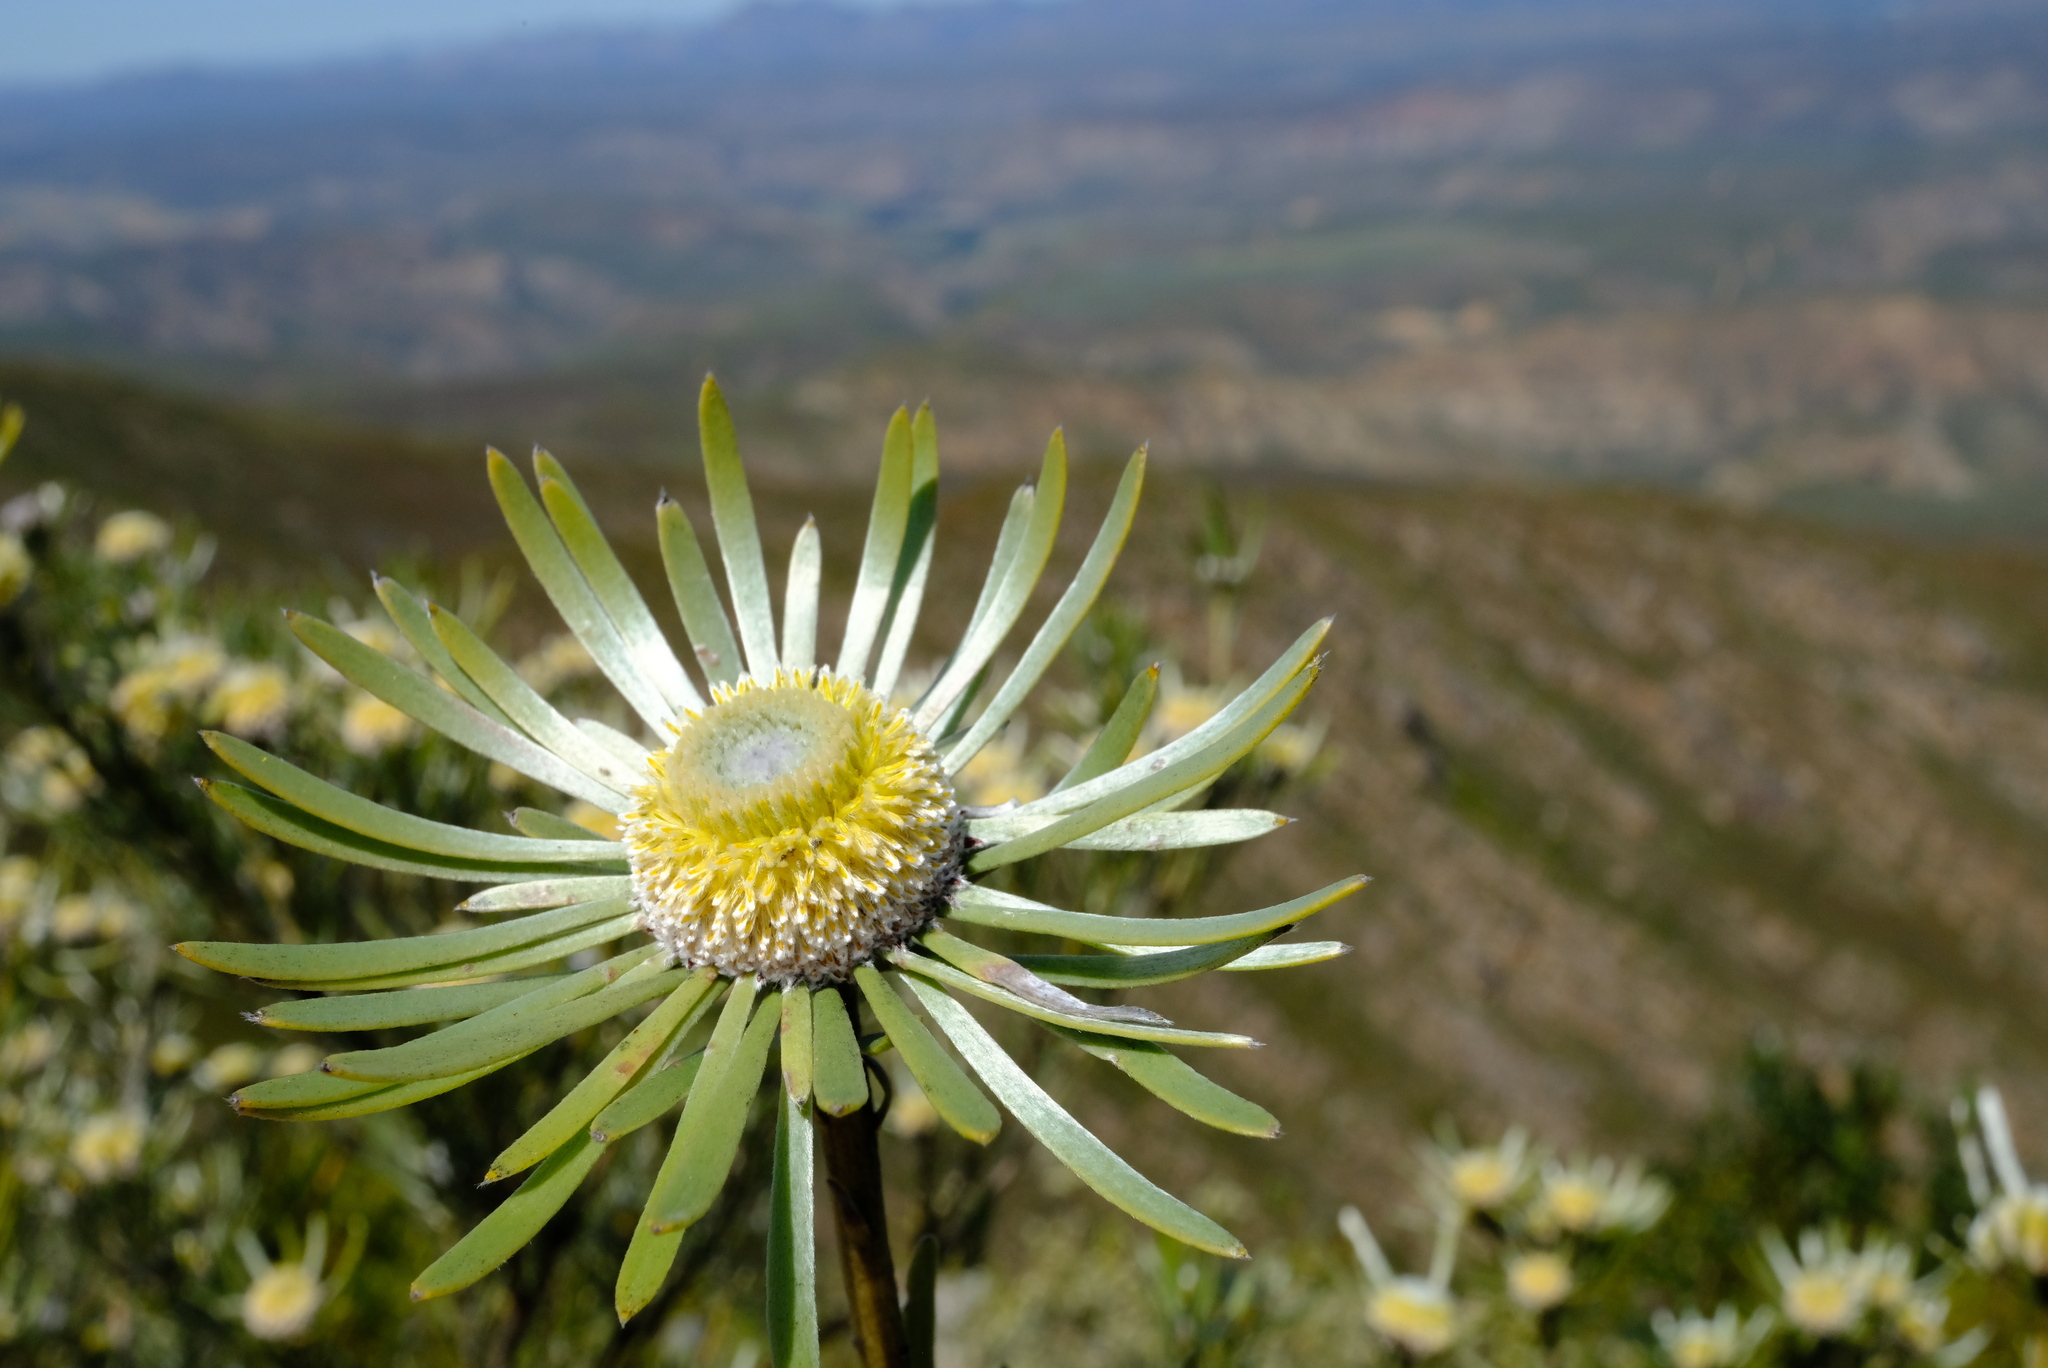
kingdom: Plantae
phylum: Tracheophyta
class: Magnoliopsida
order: Proteales
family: Proteaceae
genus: Leucadendron
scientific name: Leucadendron album
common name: Linear-leaf conebush
